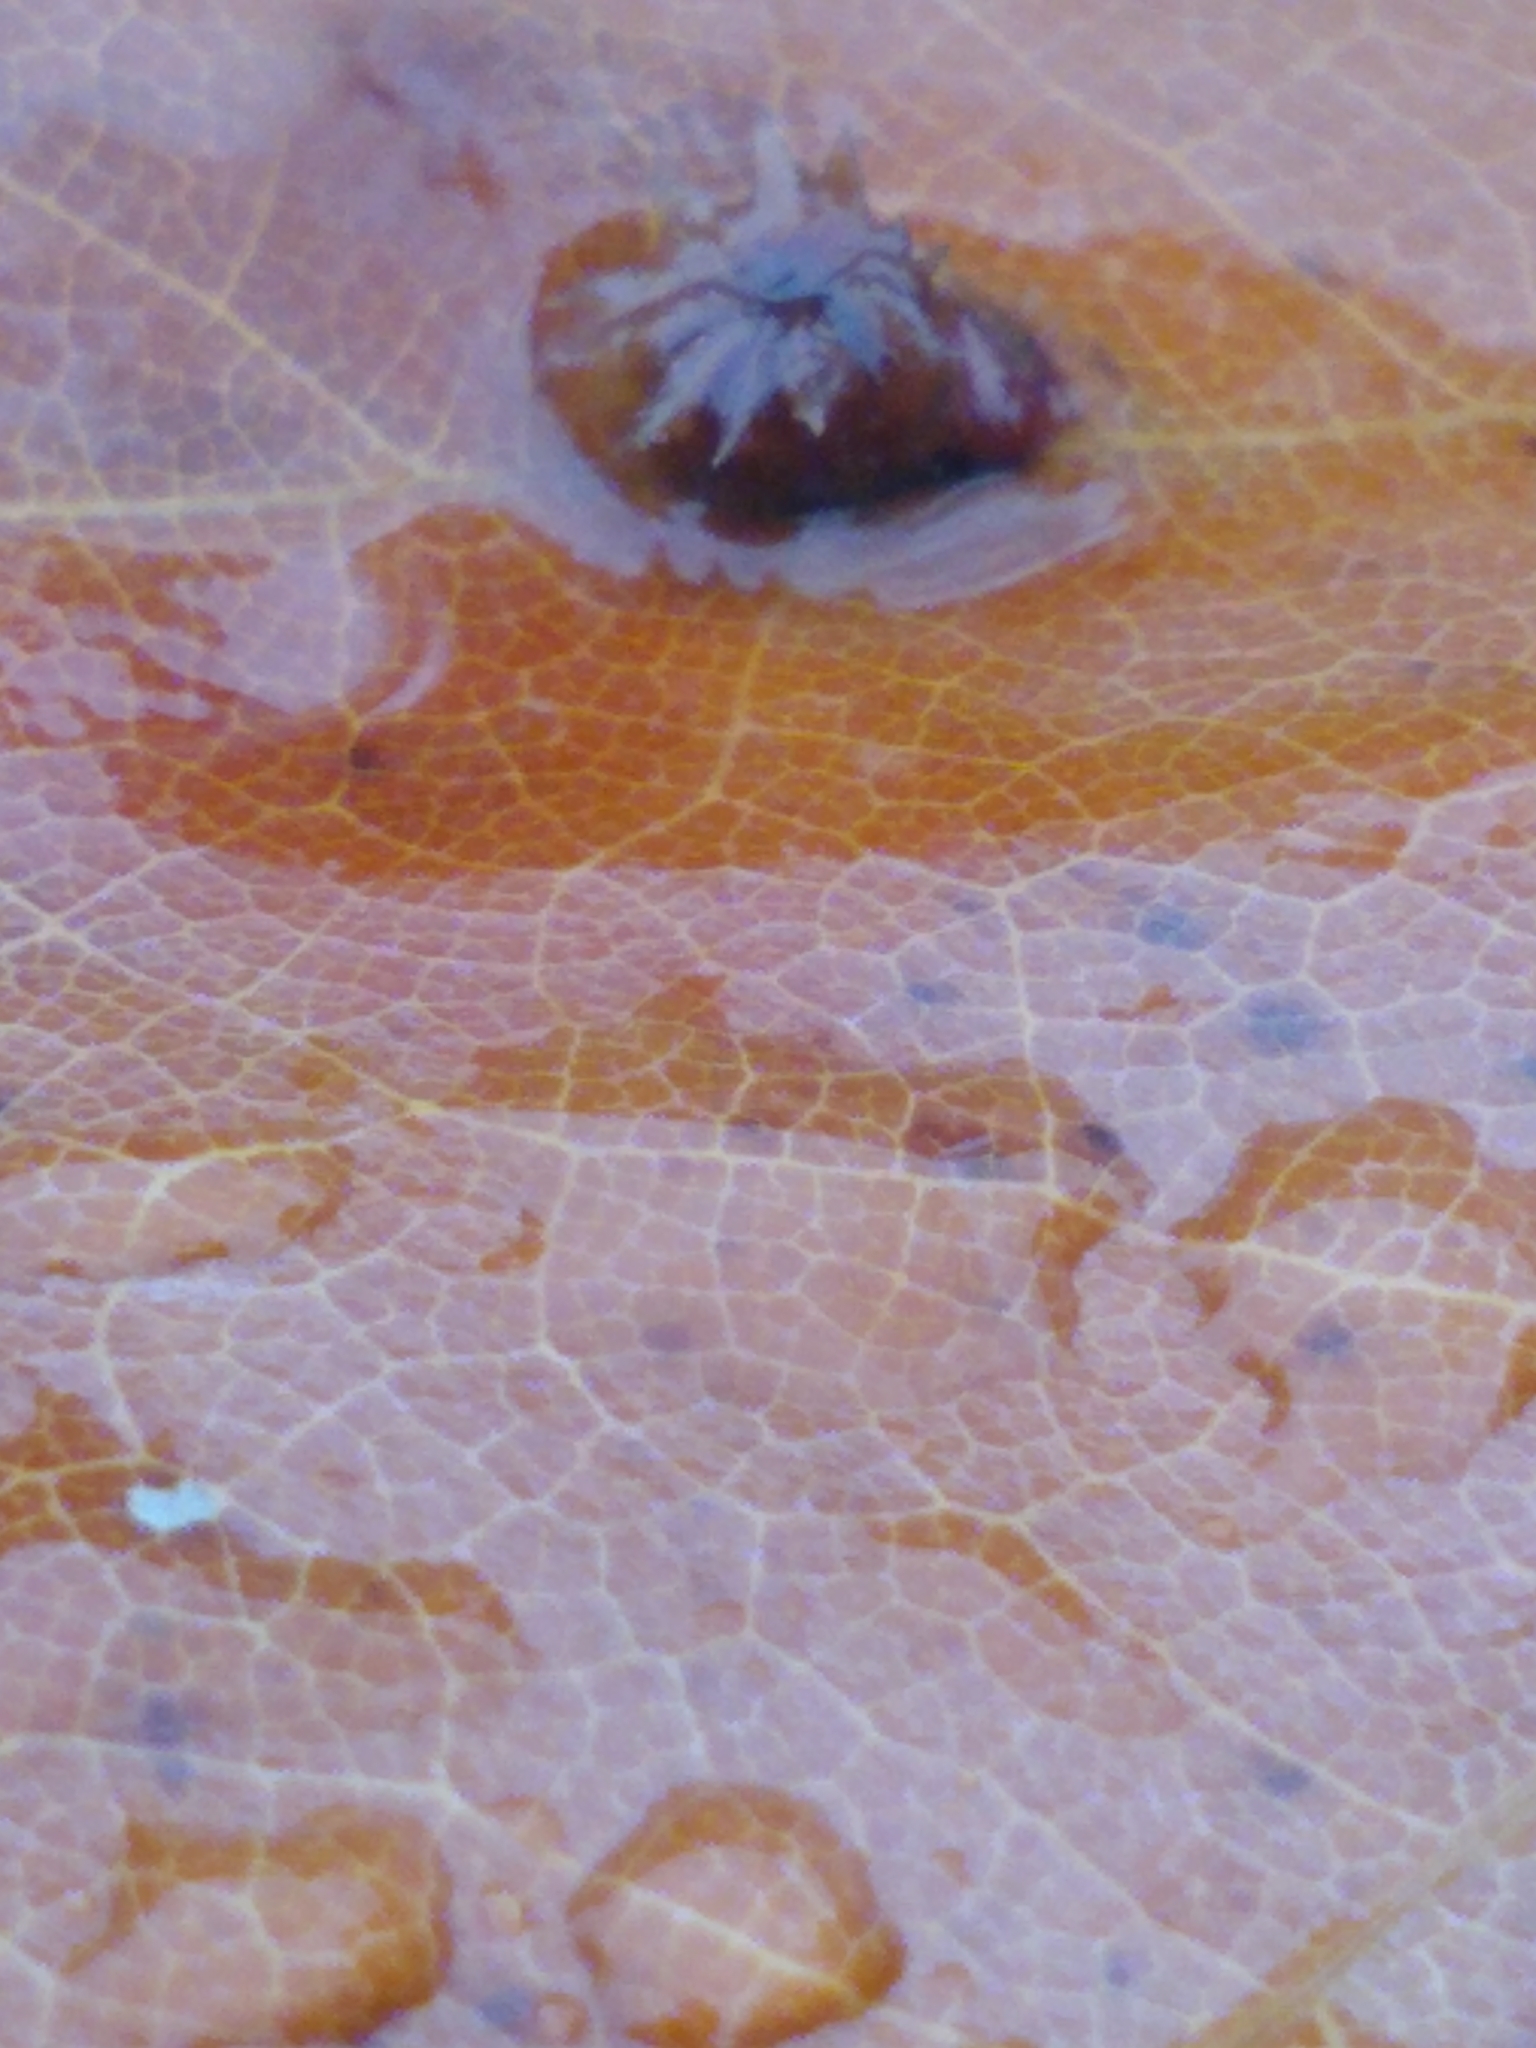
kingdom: Animalia
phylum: Arthropoda
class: Insecta
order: Hymenoptera
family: Cynipidae
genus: Callirhytis
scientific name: Callirhytis
